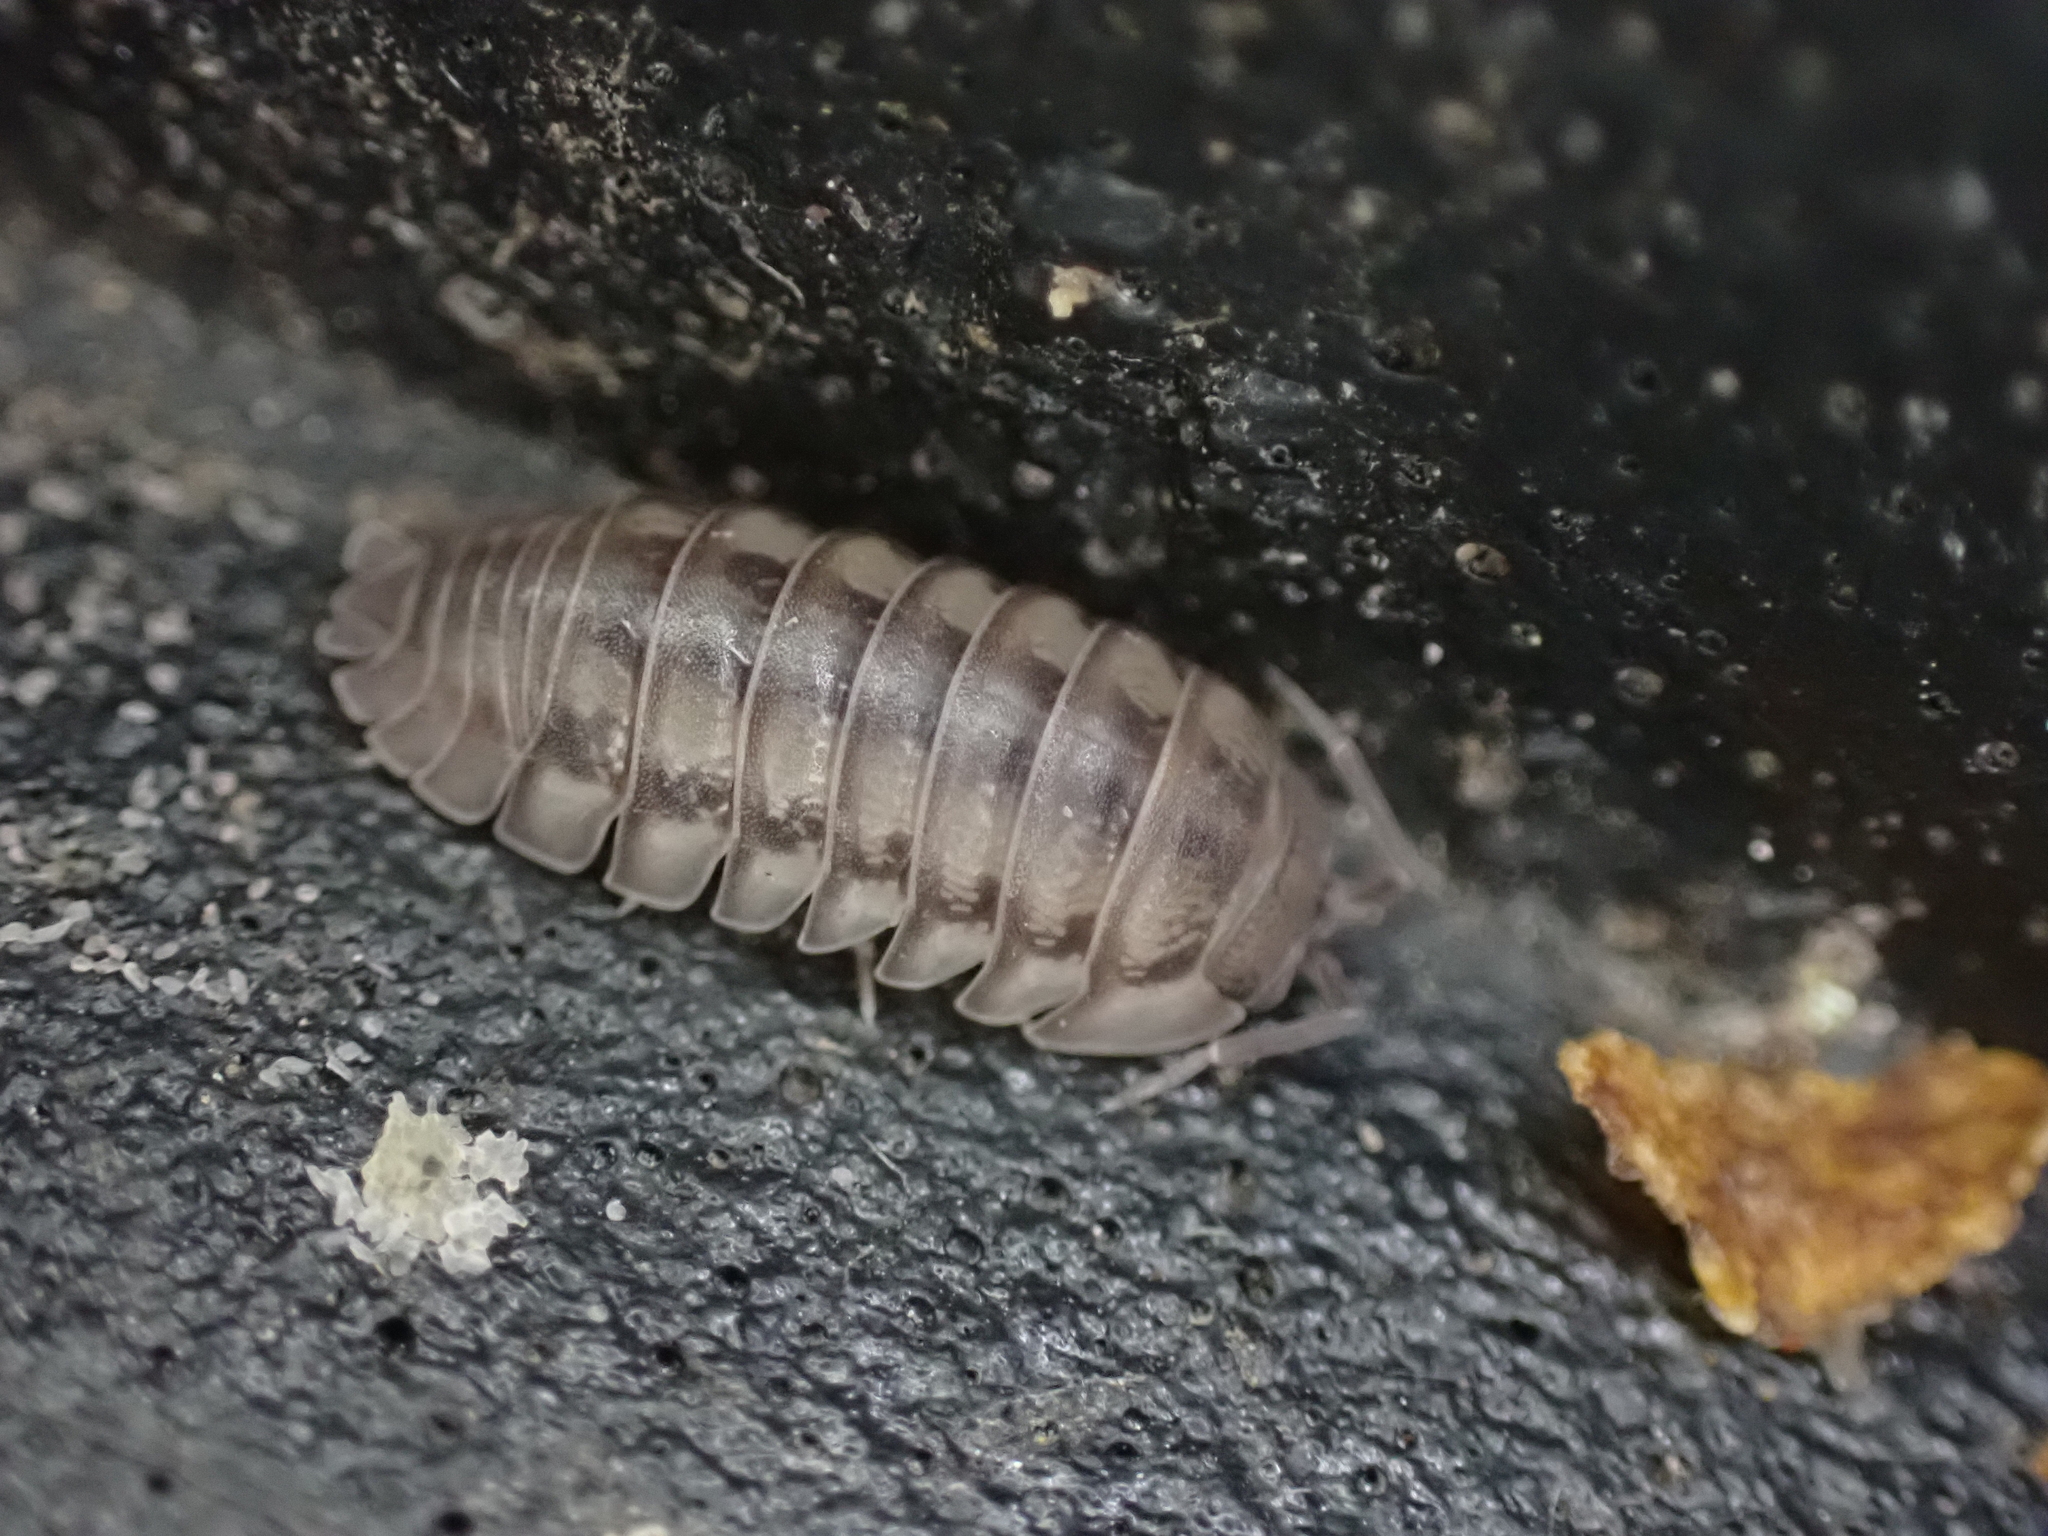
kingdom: Animalia
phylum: Arthropoda
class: Malacostraca
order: Isopoda
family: Armadillidiidae
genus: Armadillidium
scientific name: Armadillidium nasatum
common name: Isopod
